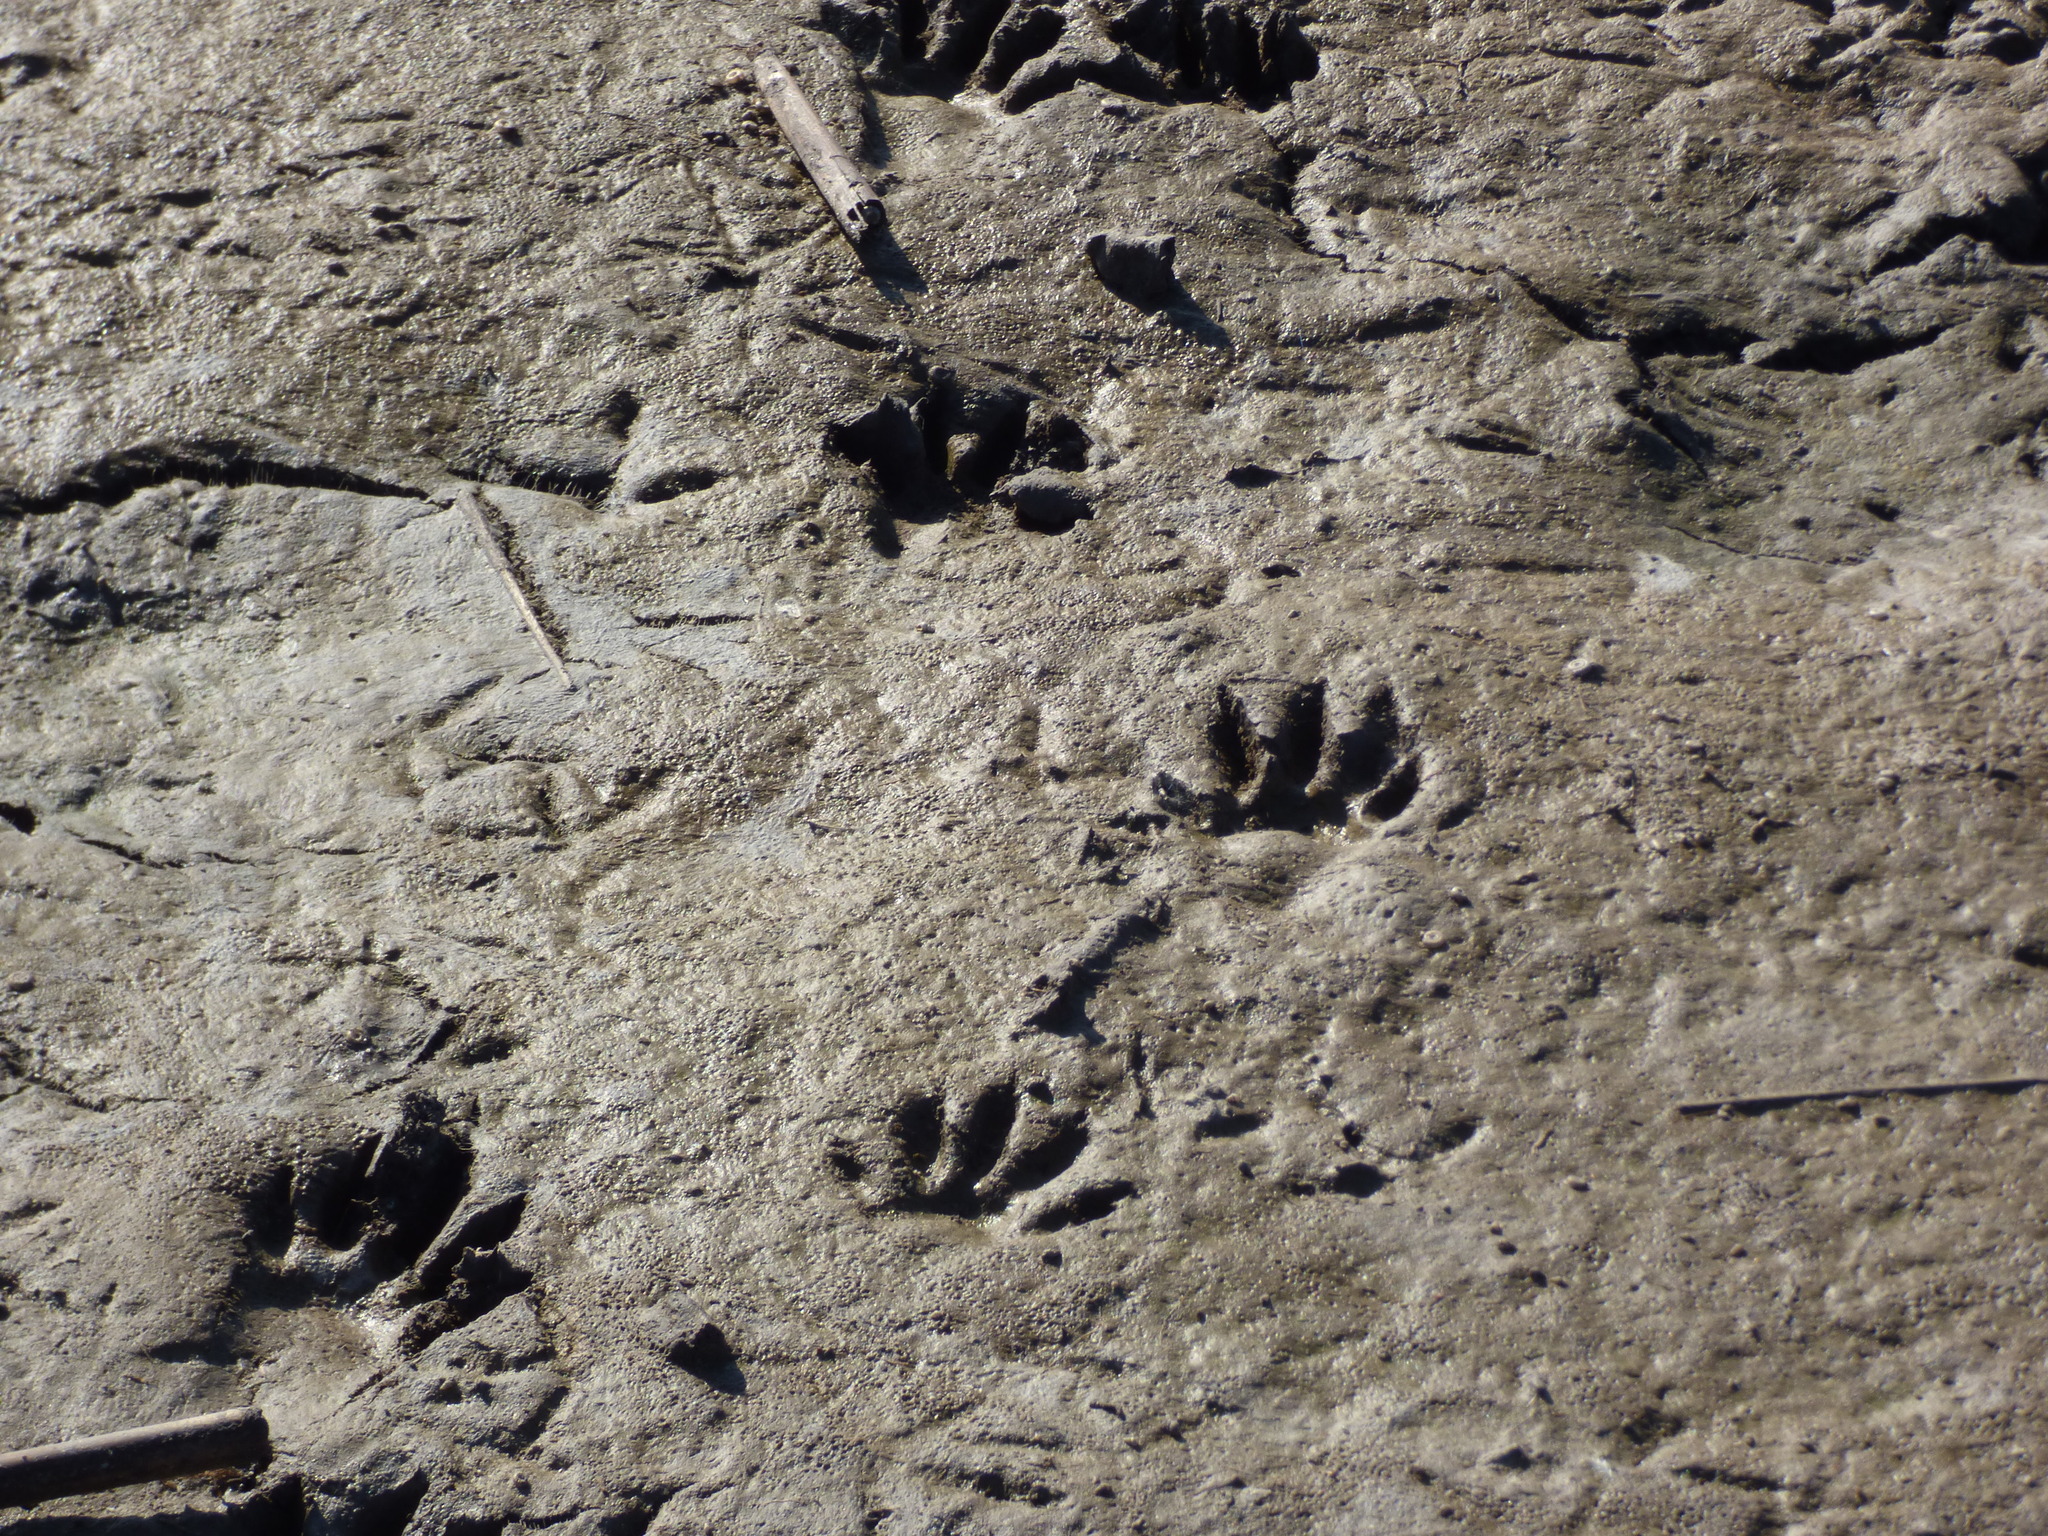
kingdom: Animalia
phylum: Chordata
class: Mammalia
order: Carnivora
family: Procyonidae
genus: Procyon
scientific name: Procyon cancrivorus
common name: Crab-eating raccoon
